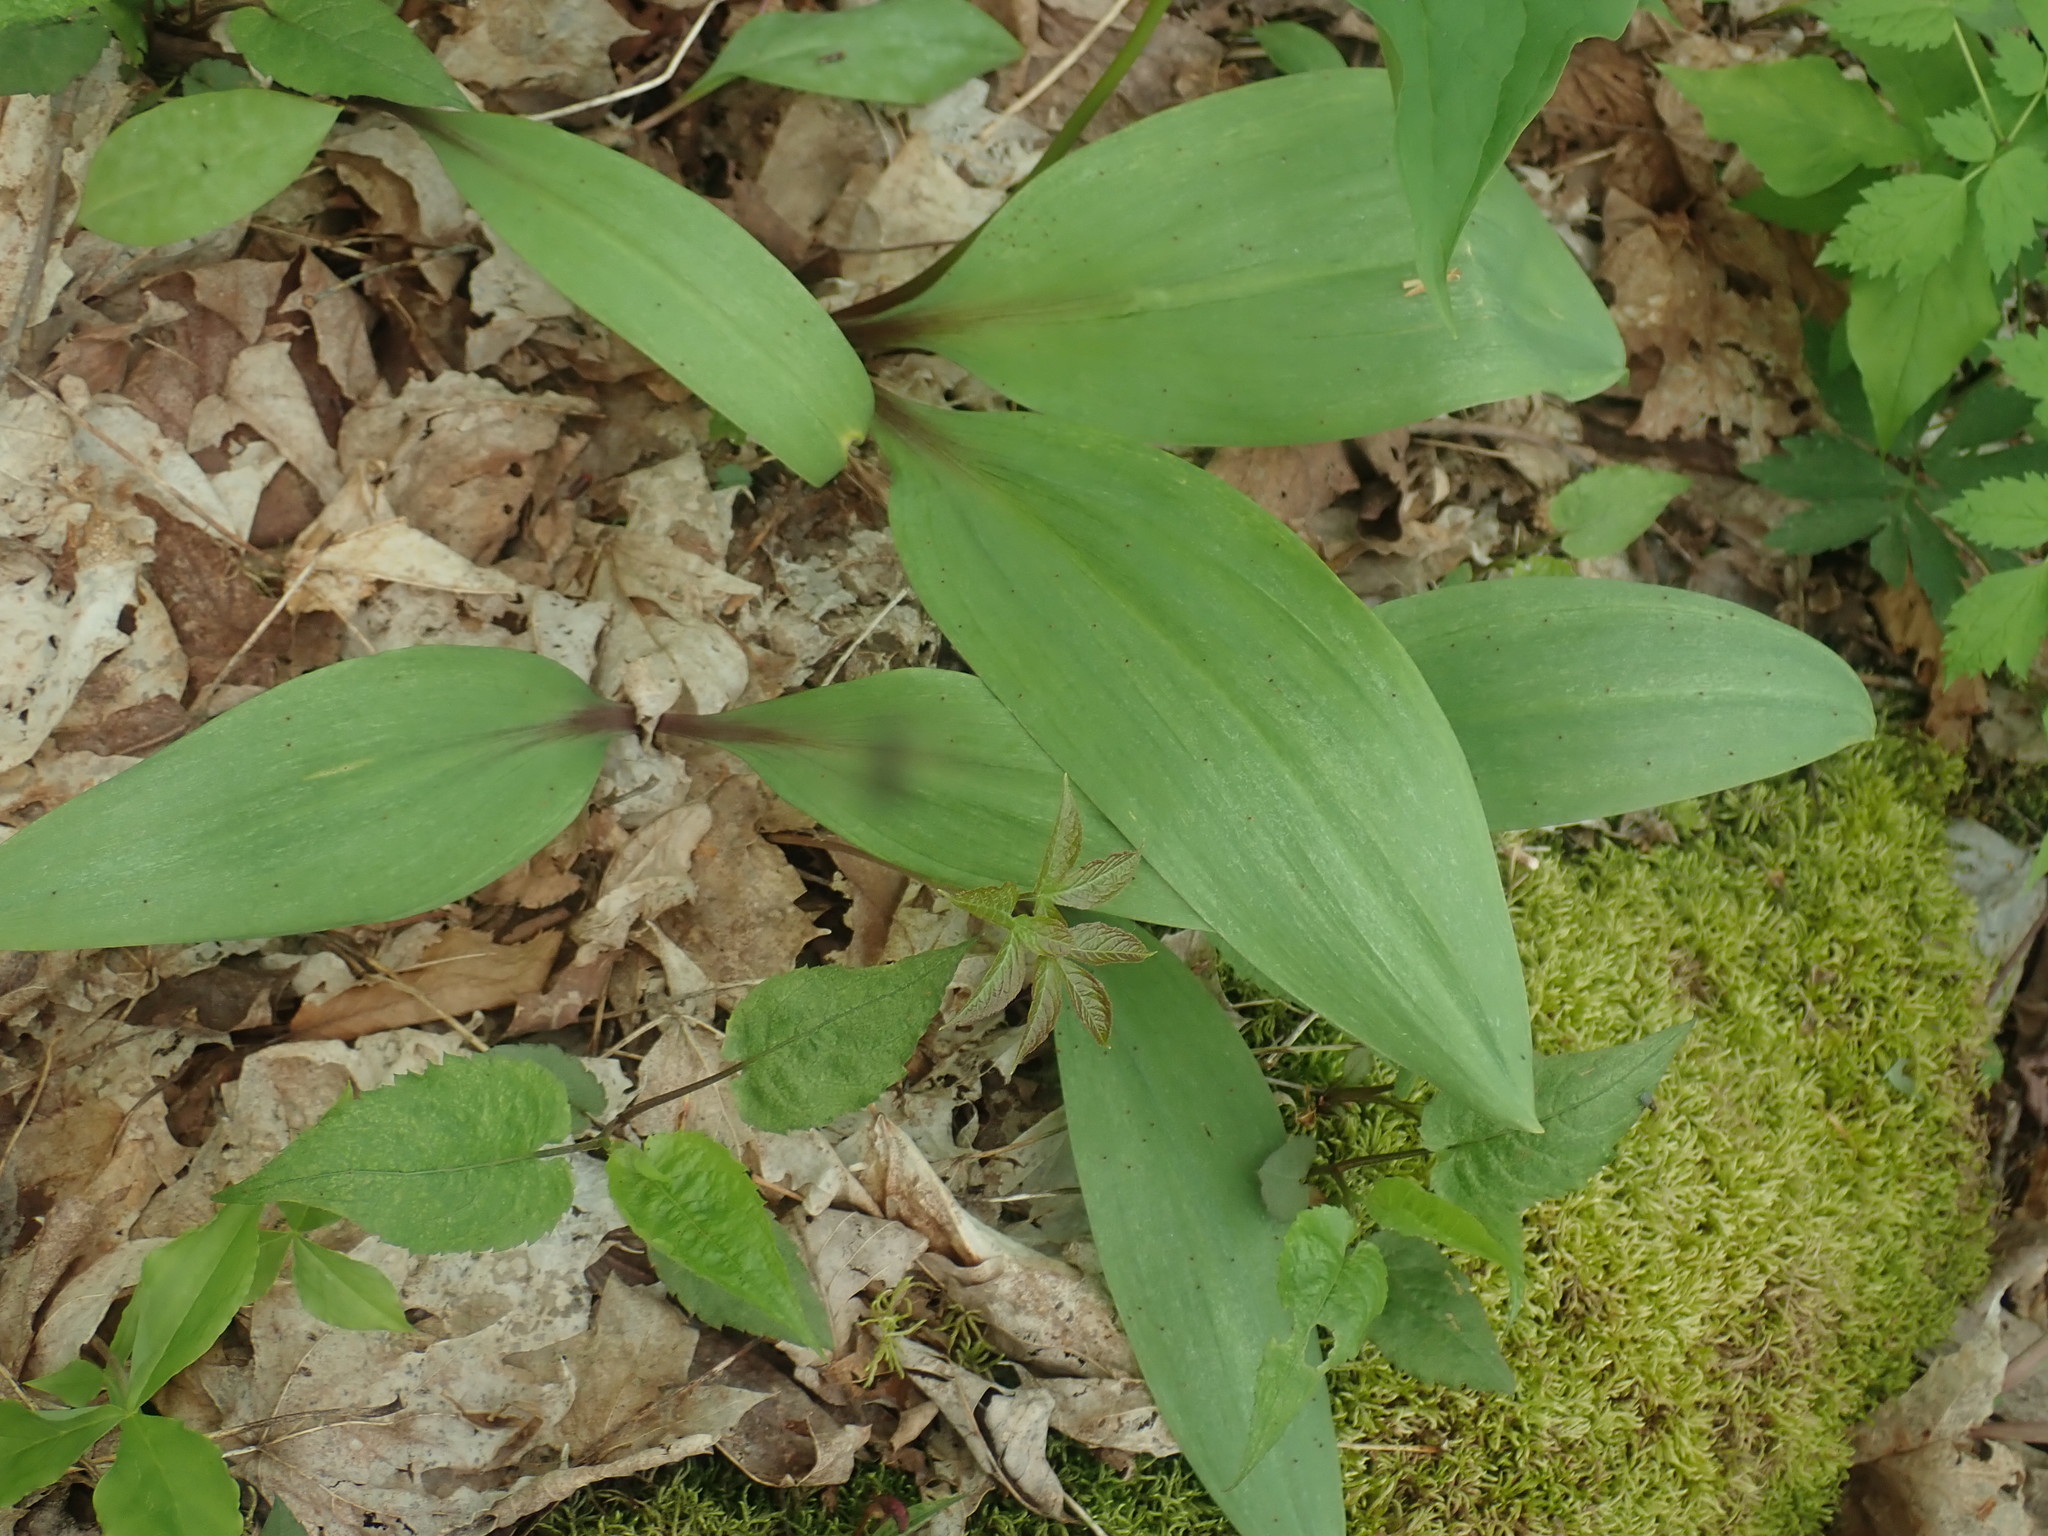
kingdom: Plantae
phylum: Tracheophyta
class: Liliopsida
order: Asparagales
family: Amaryllidaceae
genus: Allium
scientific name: Allium tricoccum
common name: Ramp
